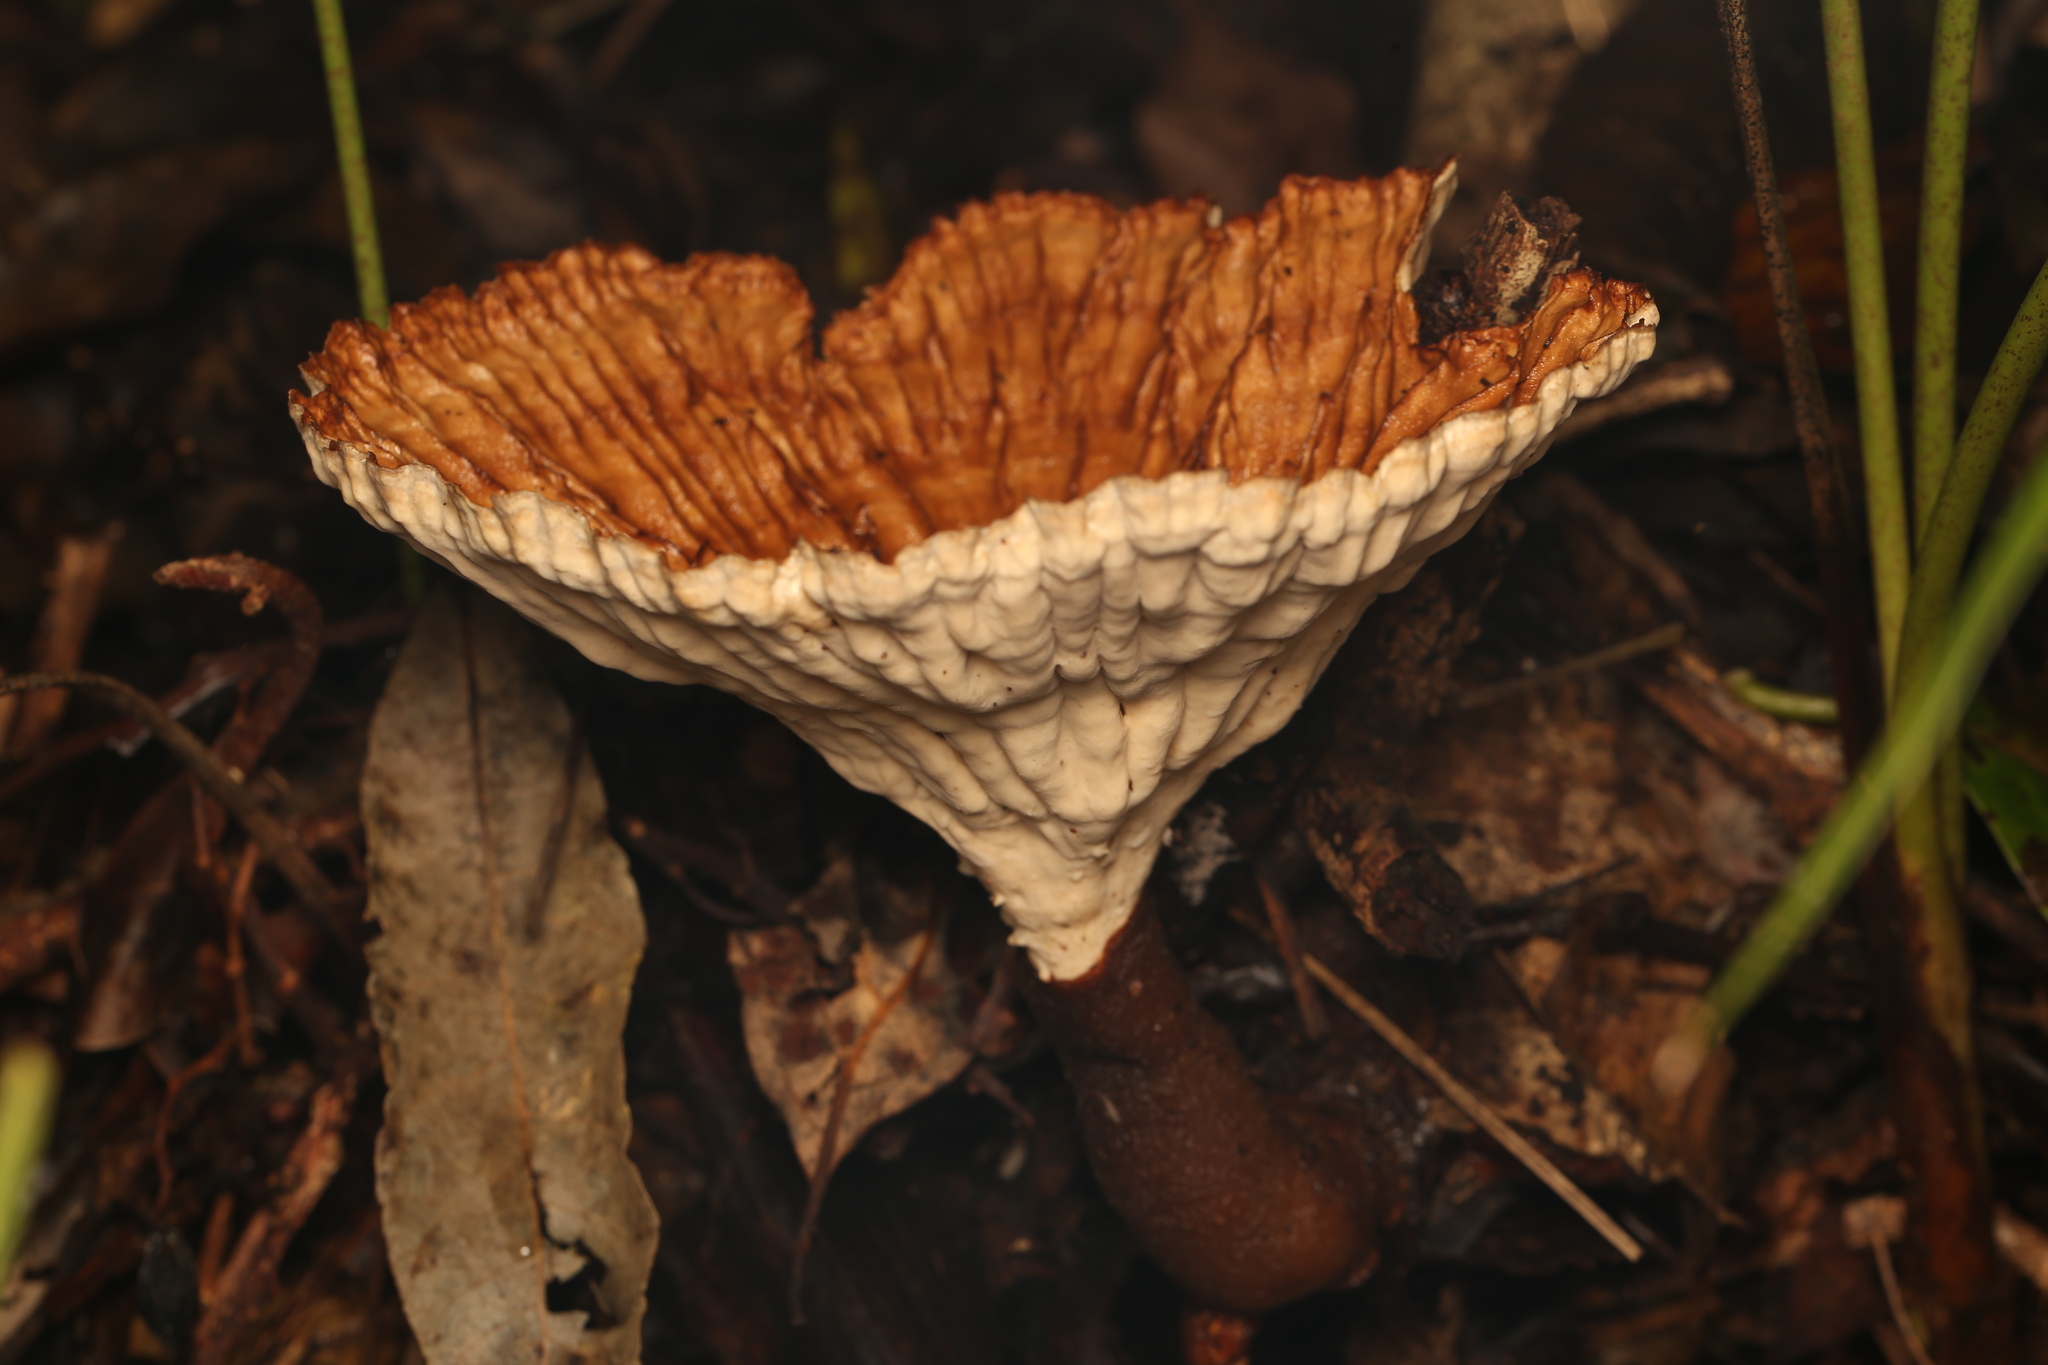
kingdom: Fungi
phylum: Basidiomycota
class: Agaricomycetes
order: Polyporales
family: Panaceae
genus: Cymatoderma
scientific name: Cymatoderma elegans
